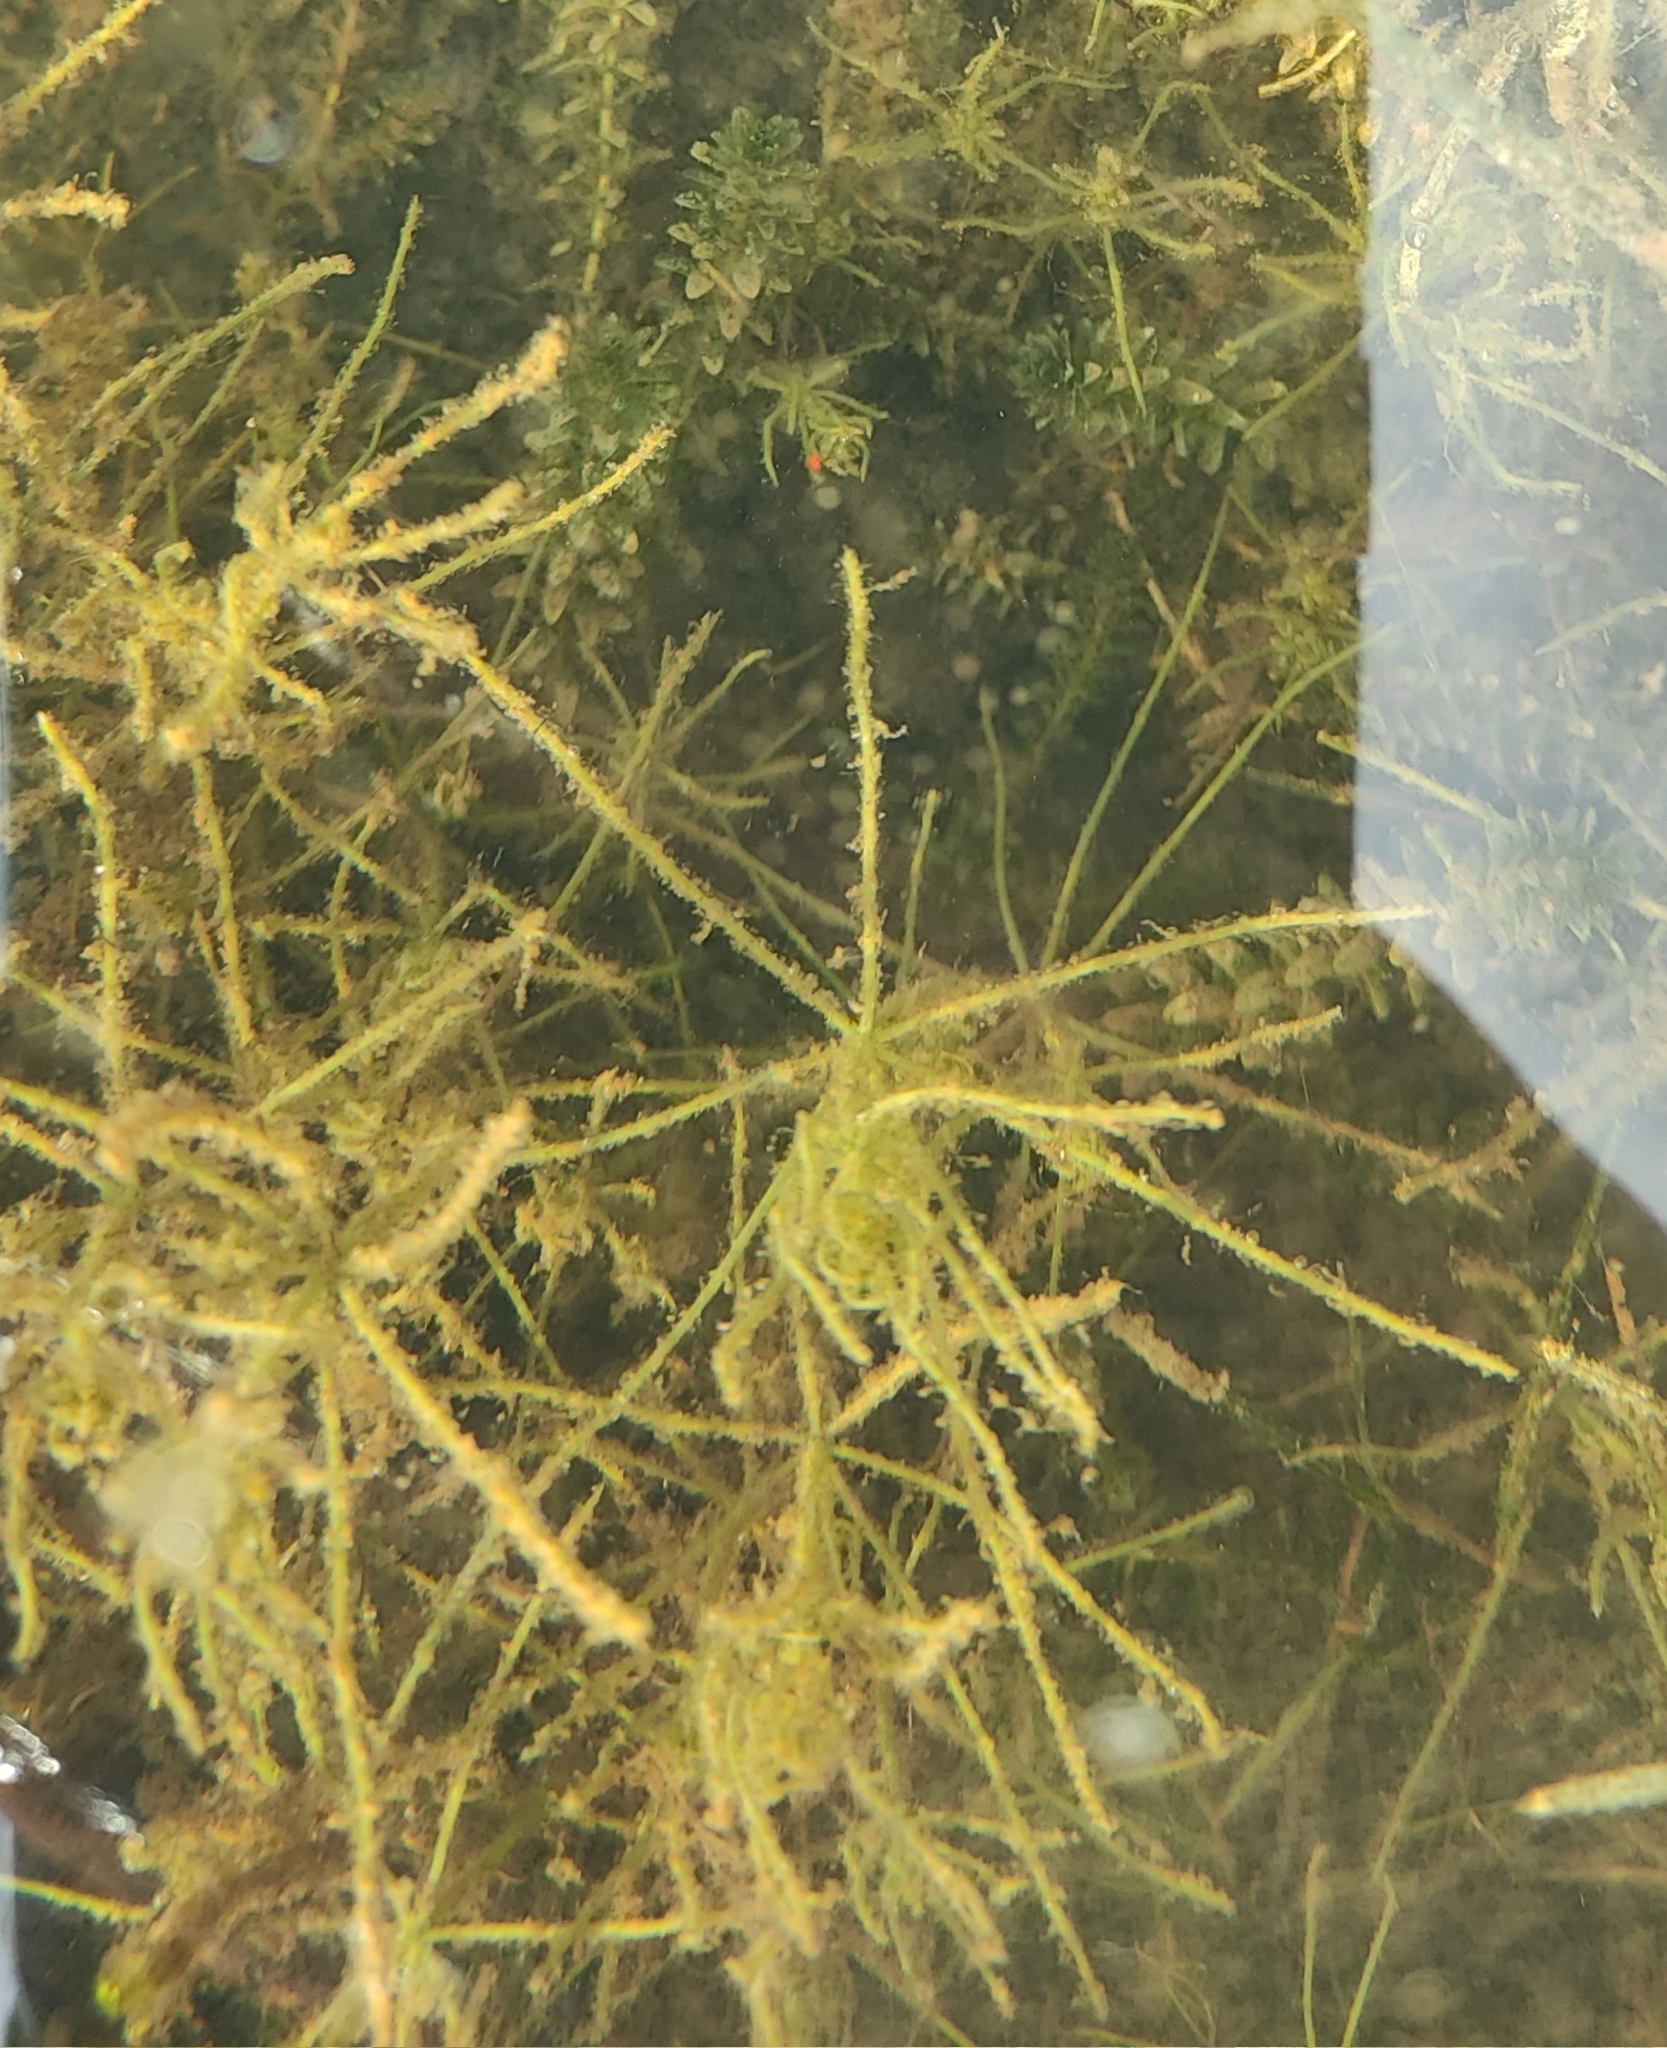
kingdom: Plantae
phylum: Charophyta
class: Charophyceae
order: Charales
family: Characeae
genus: Chara
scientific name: Chara subspinosa
